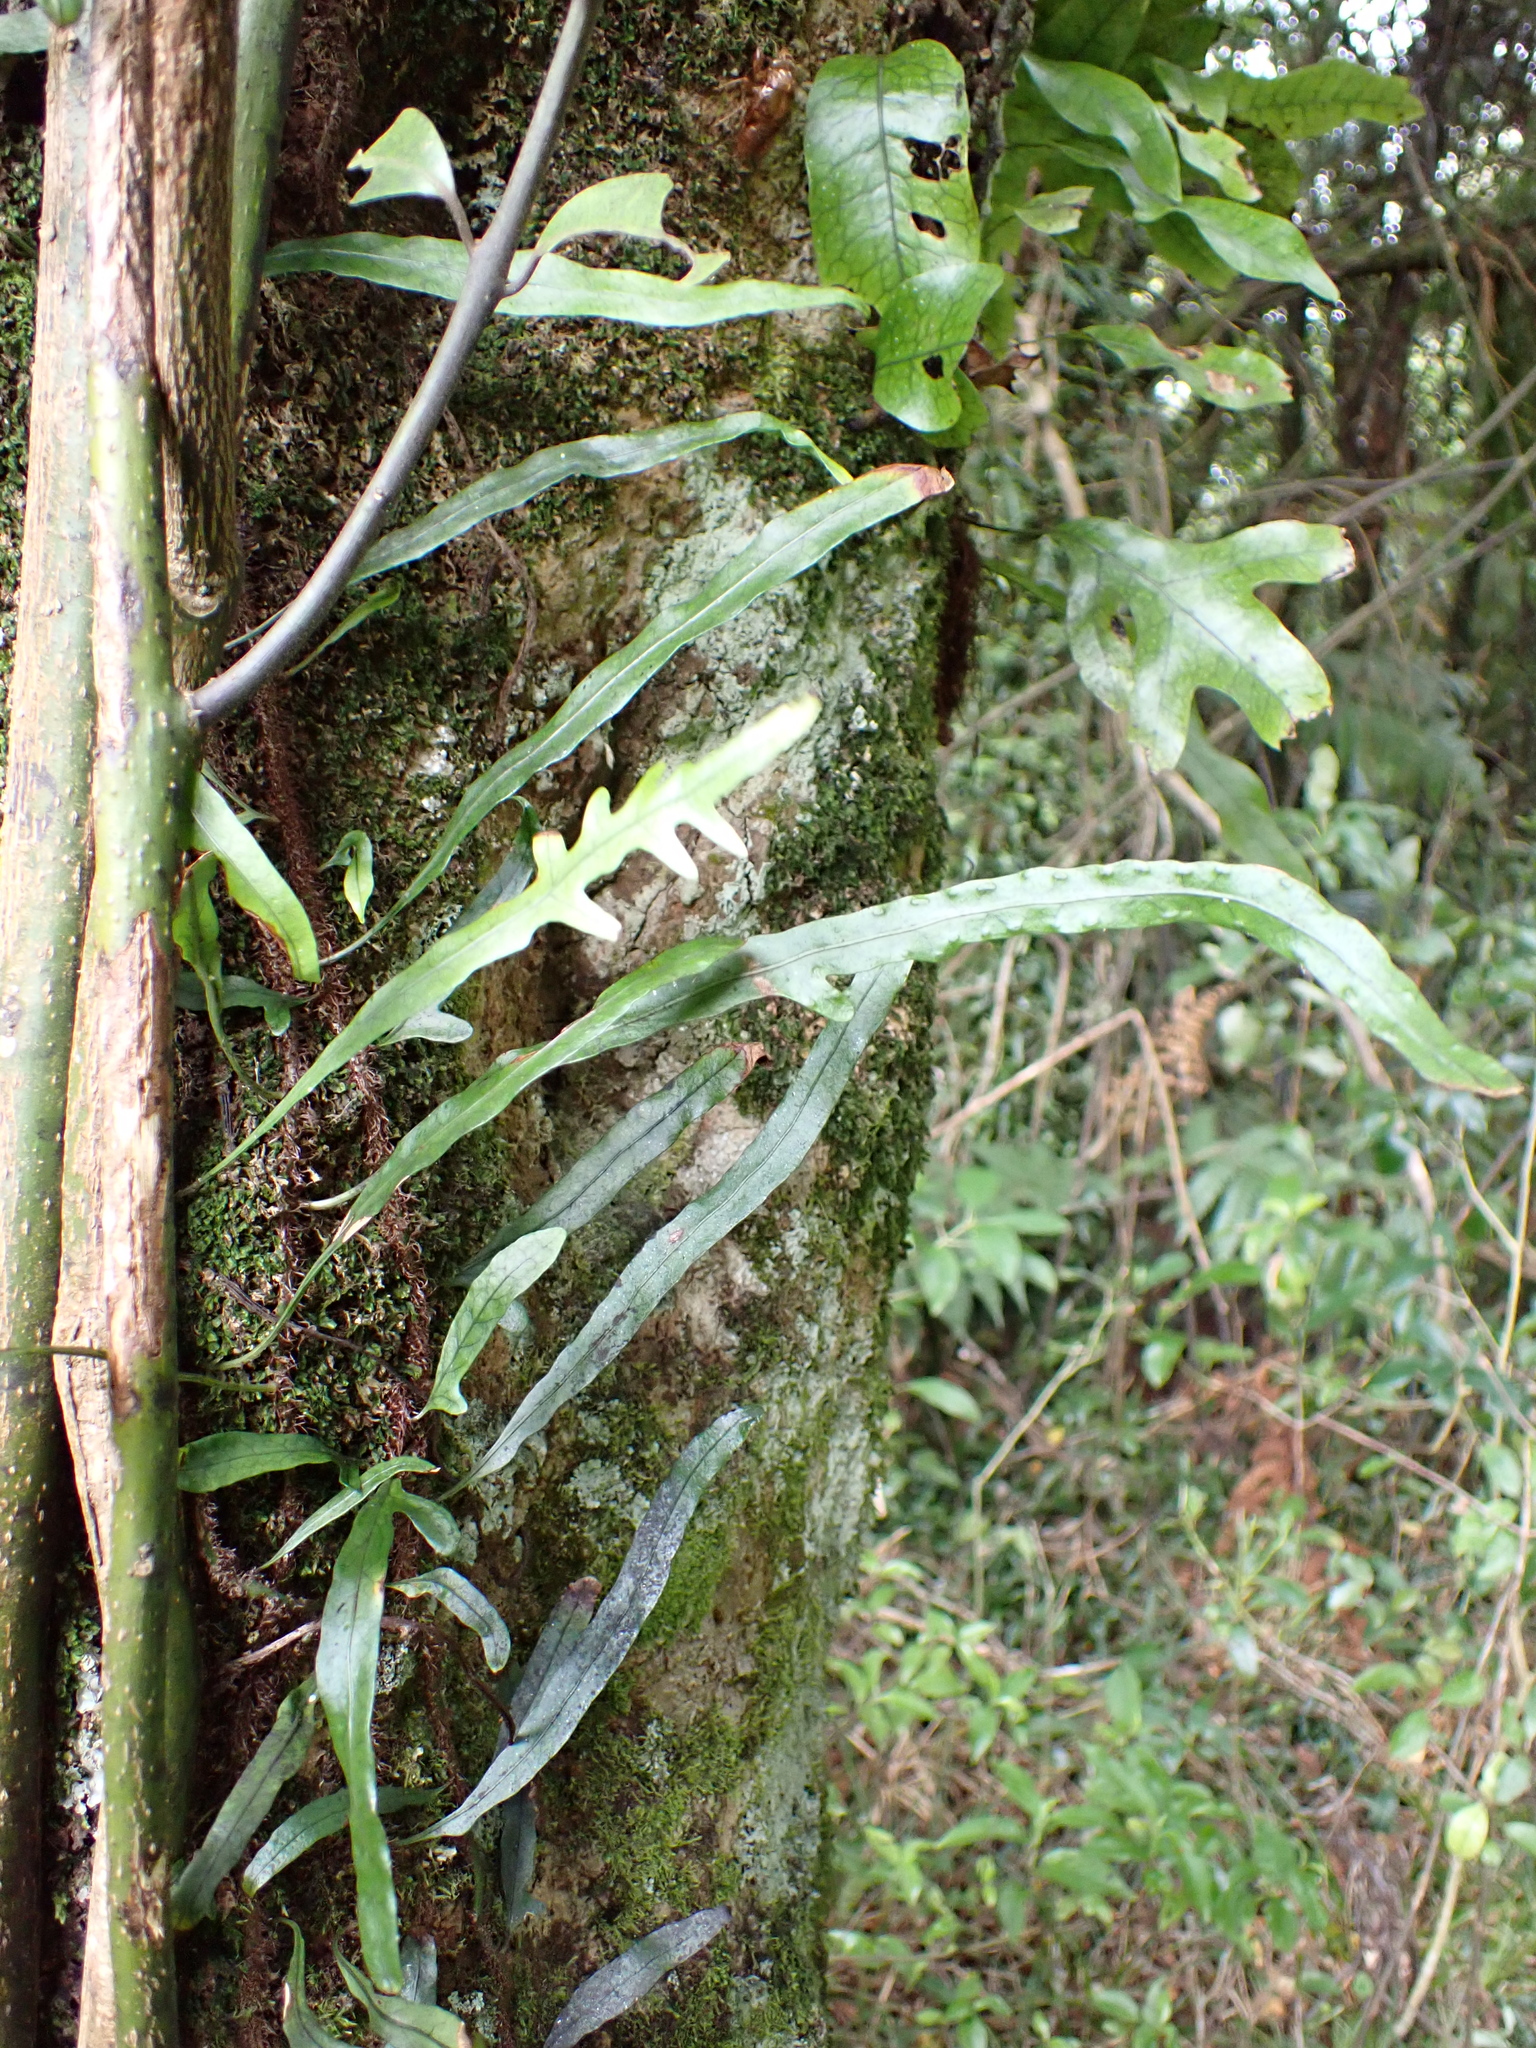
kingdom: Plantae
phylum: Tracheophyta
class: Polypodiopsida
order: Polypodiales
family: Polypodiaceae
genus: Lecanopteris
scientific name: Lecanopteris scandens
